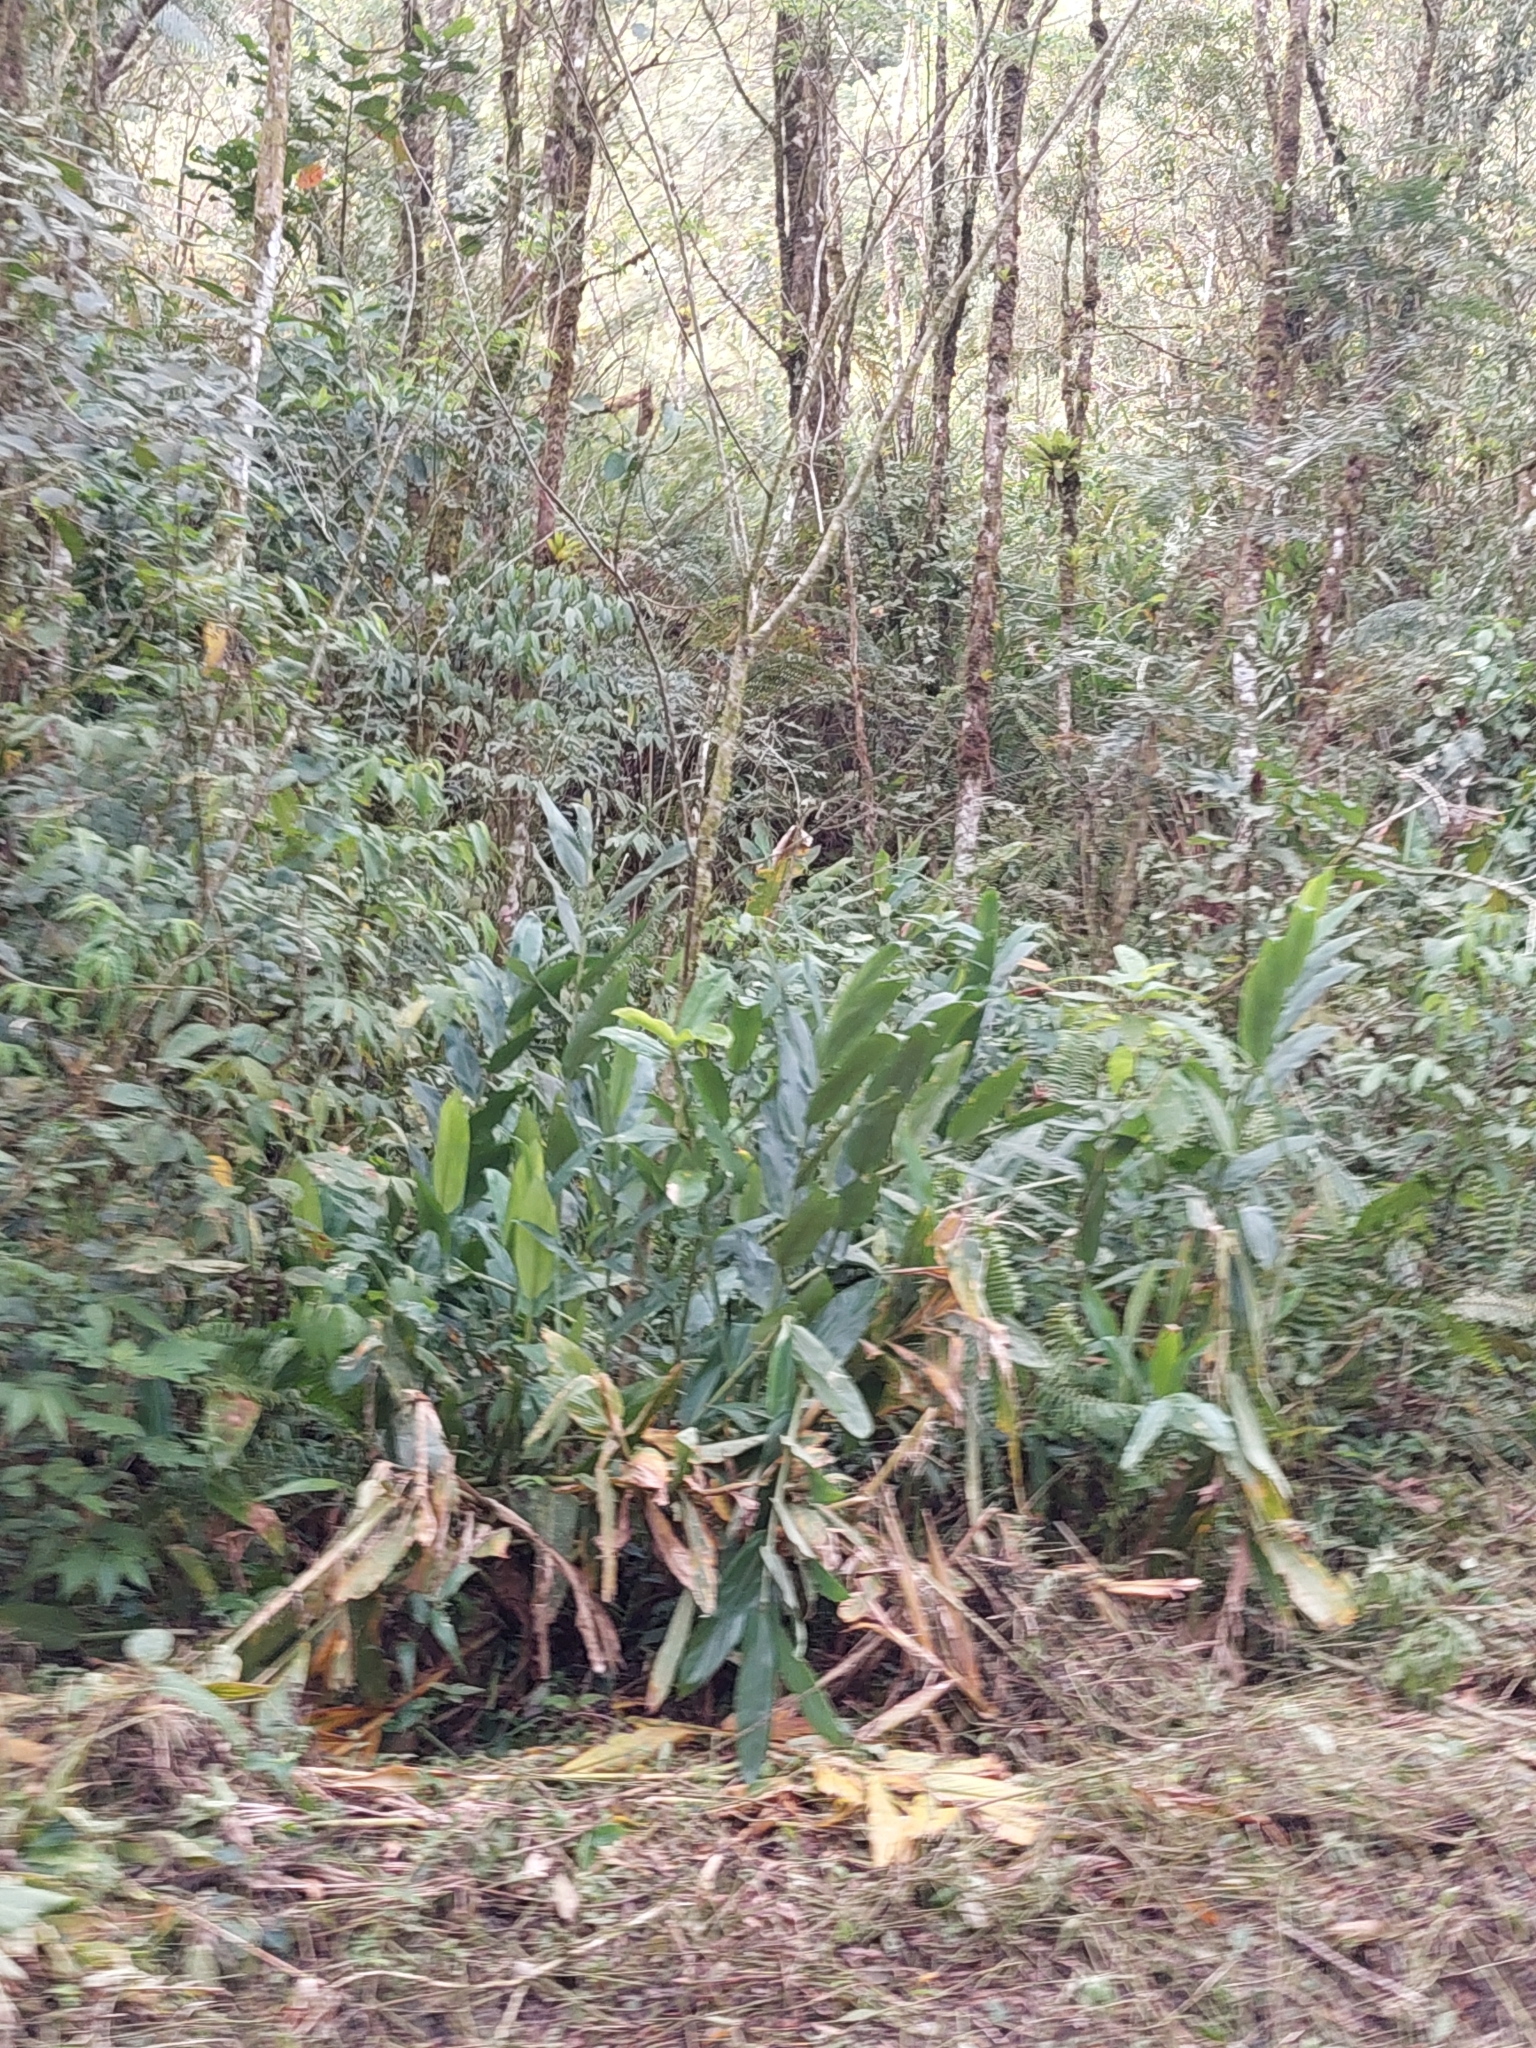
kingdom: Plantae
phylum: Tracheophyta
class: Liliopsida
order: Zingiberales
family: Zingiberaceae
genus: Hedychium
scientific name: Hedychium coronarium
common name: White garland-lily
